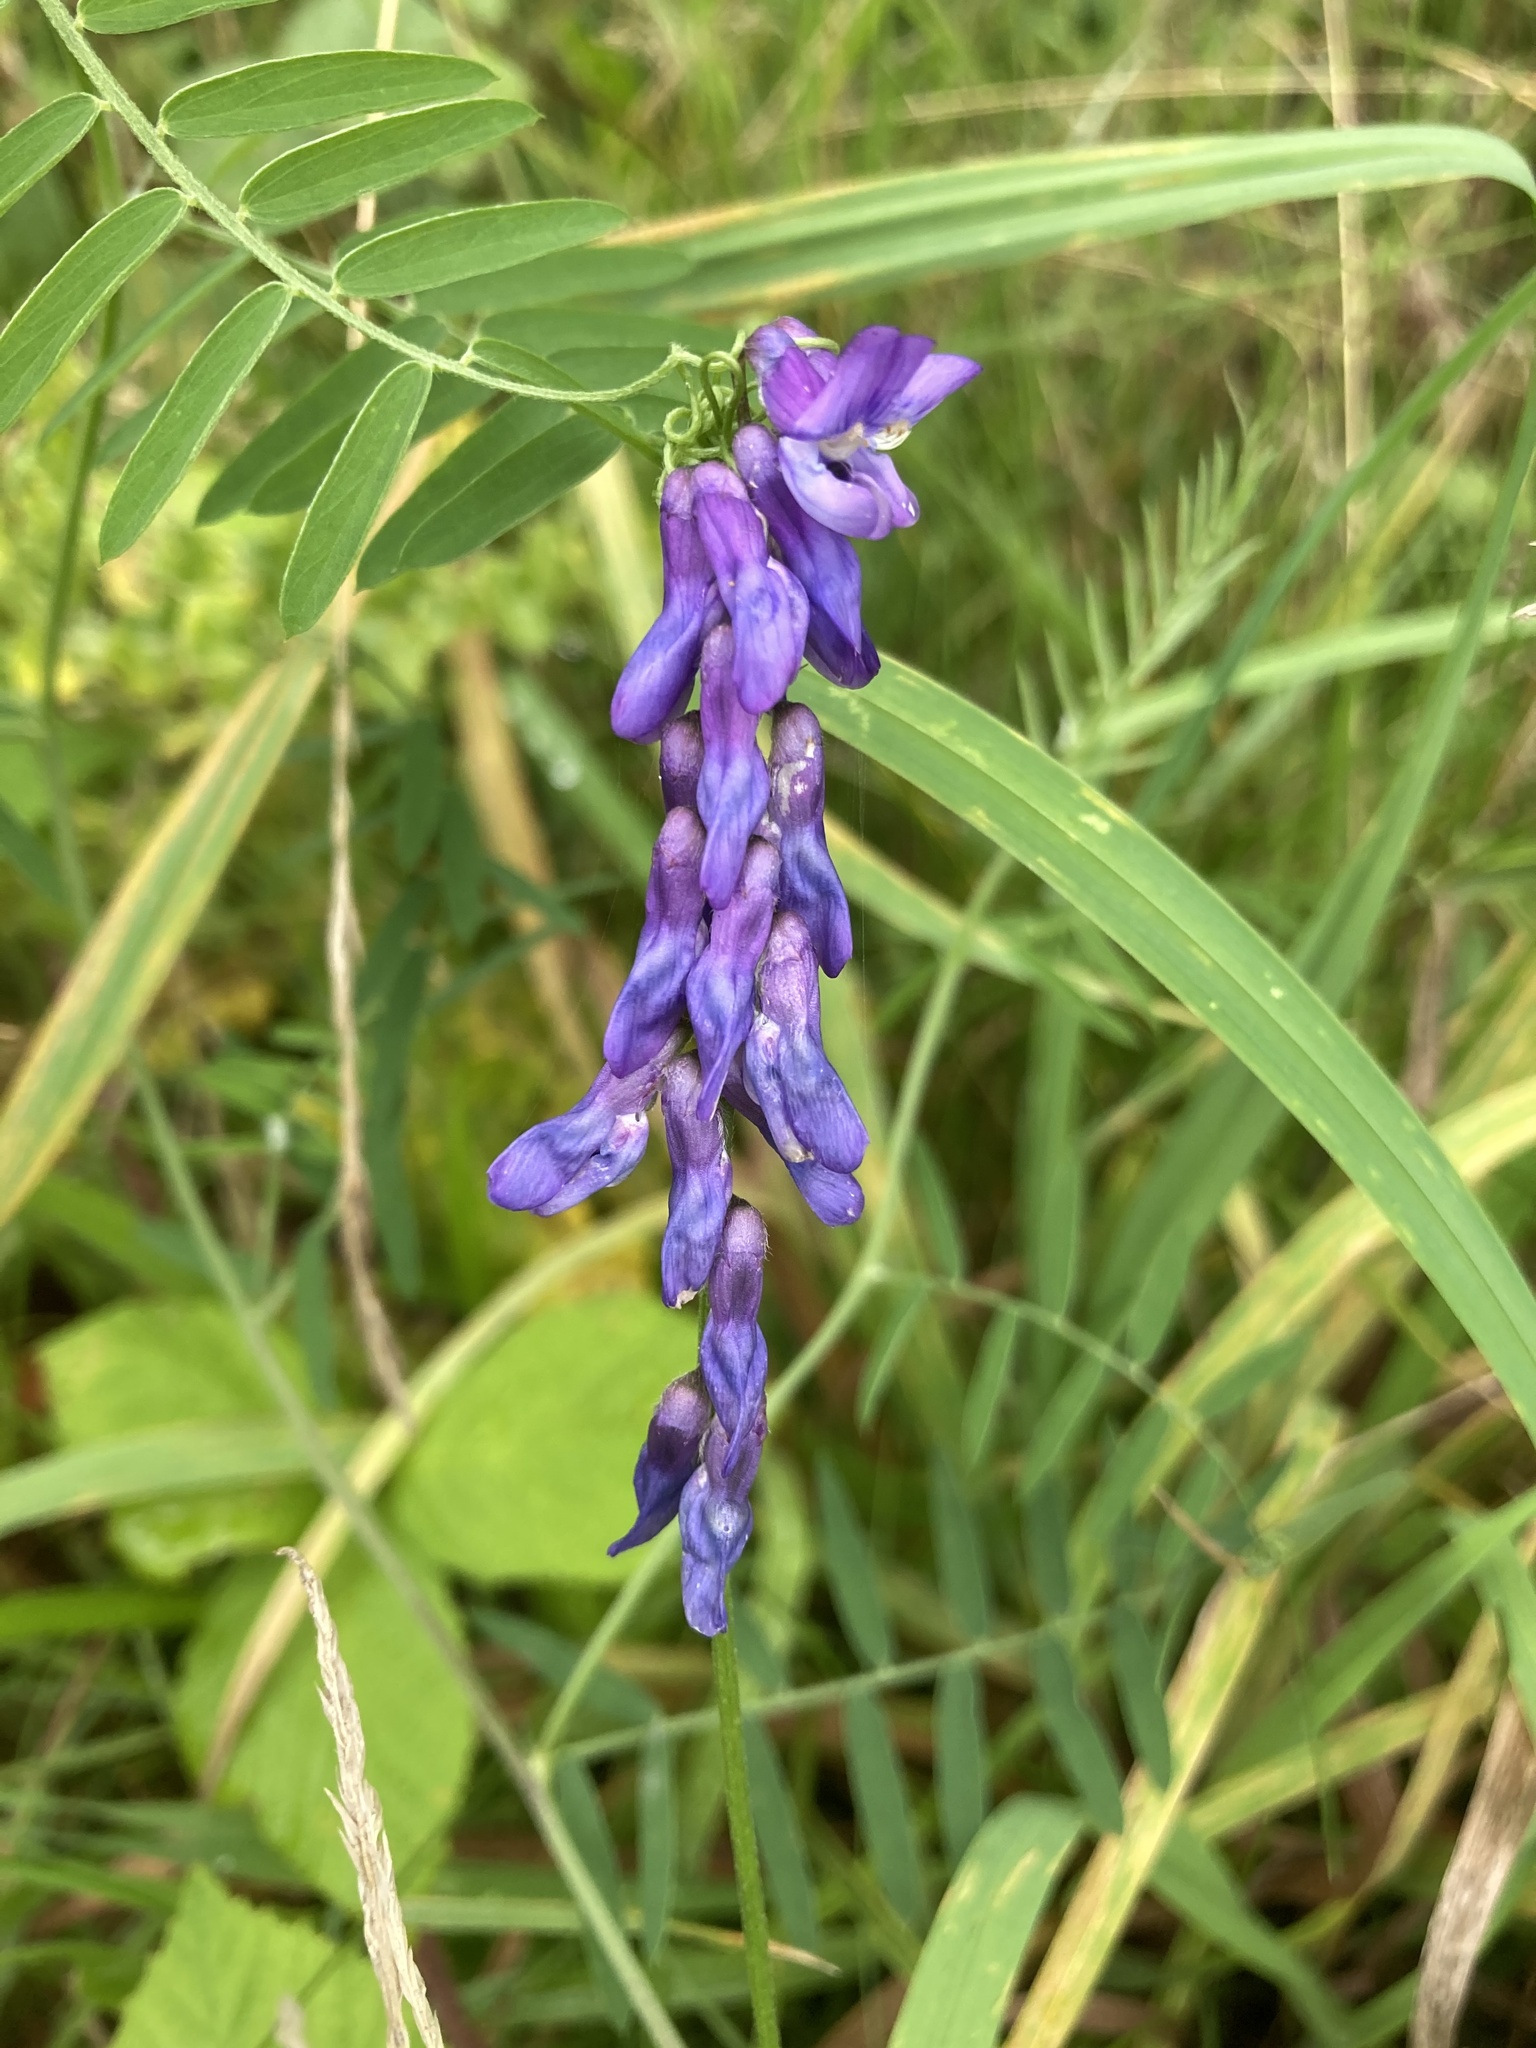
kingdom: Plantae
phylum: Tracheophyta
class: Magnoliopsida
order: Fabales
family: Fabaceae
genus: Vicia
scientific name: Vicia cracca
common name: Bird vetch
